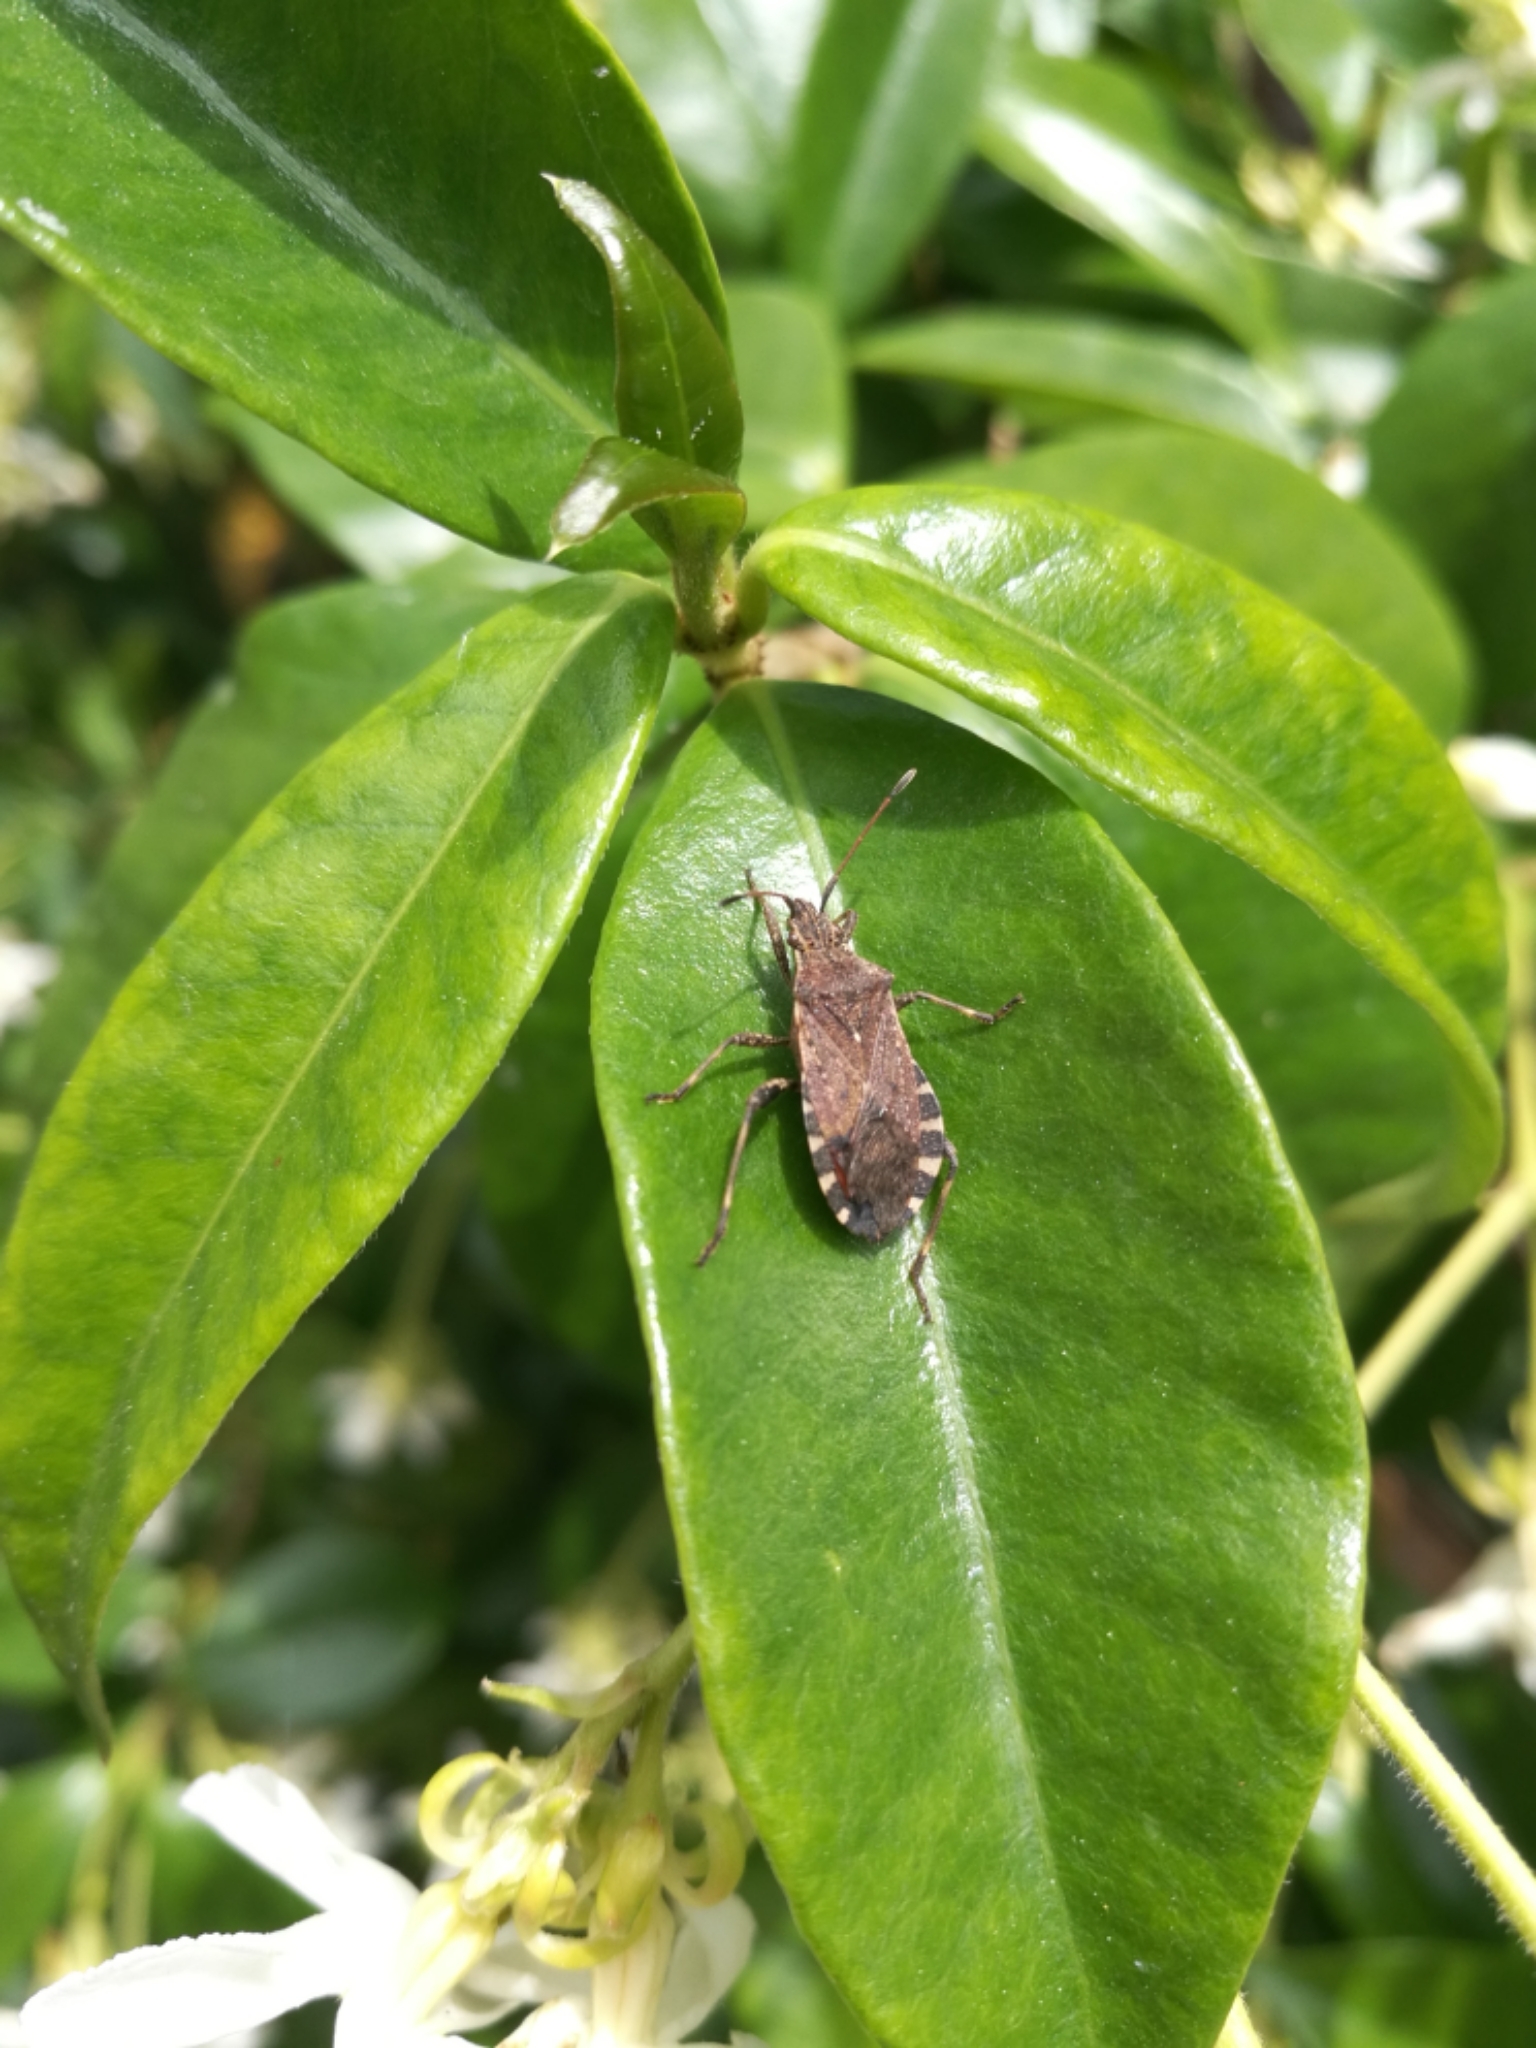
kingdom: Animalia
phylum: Arthropoda
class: Insecta
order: Hemiptera
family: Coreidae
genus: Ceraleptus
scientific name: Ceraleptus gracilicornis
